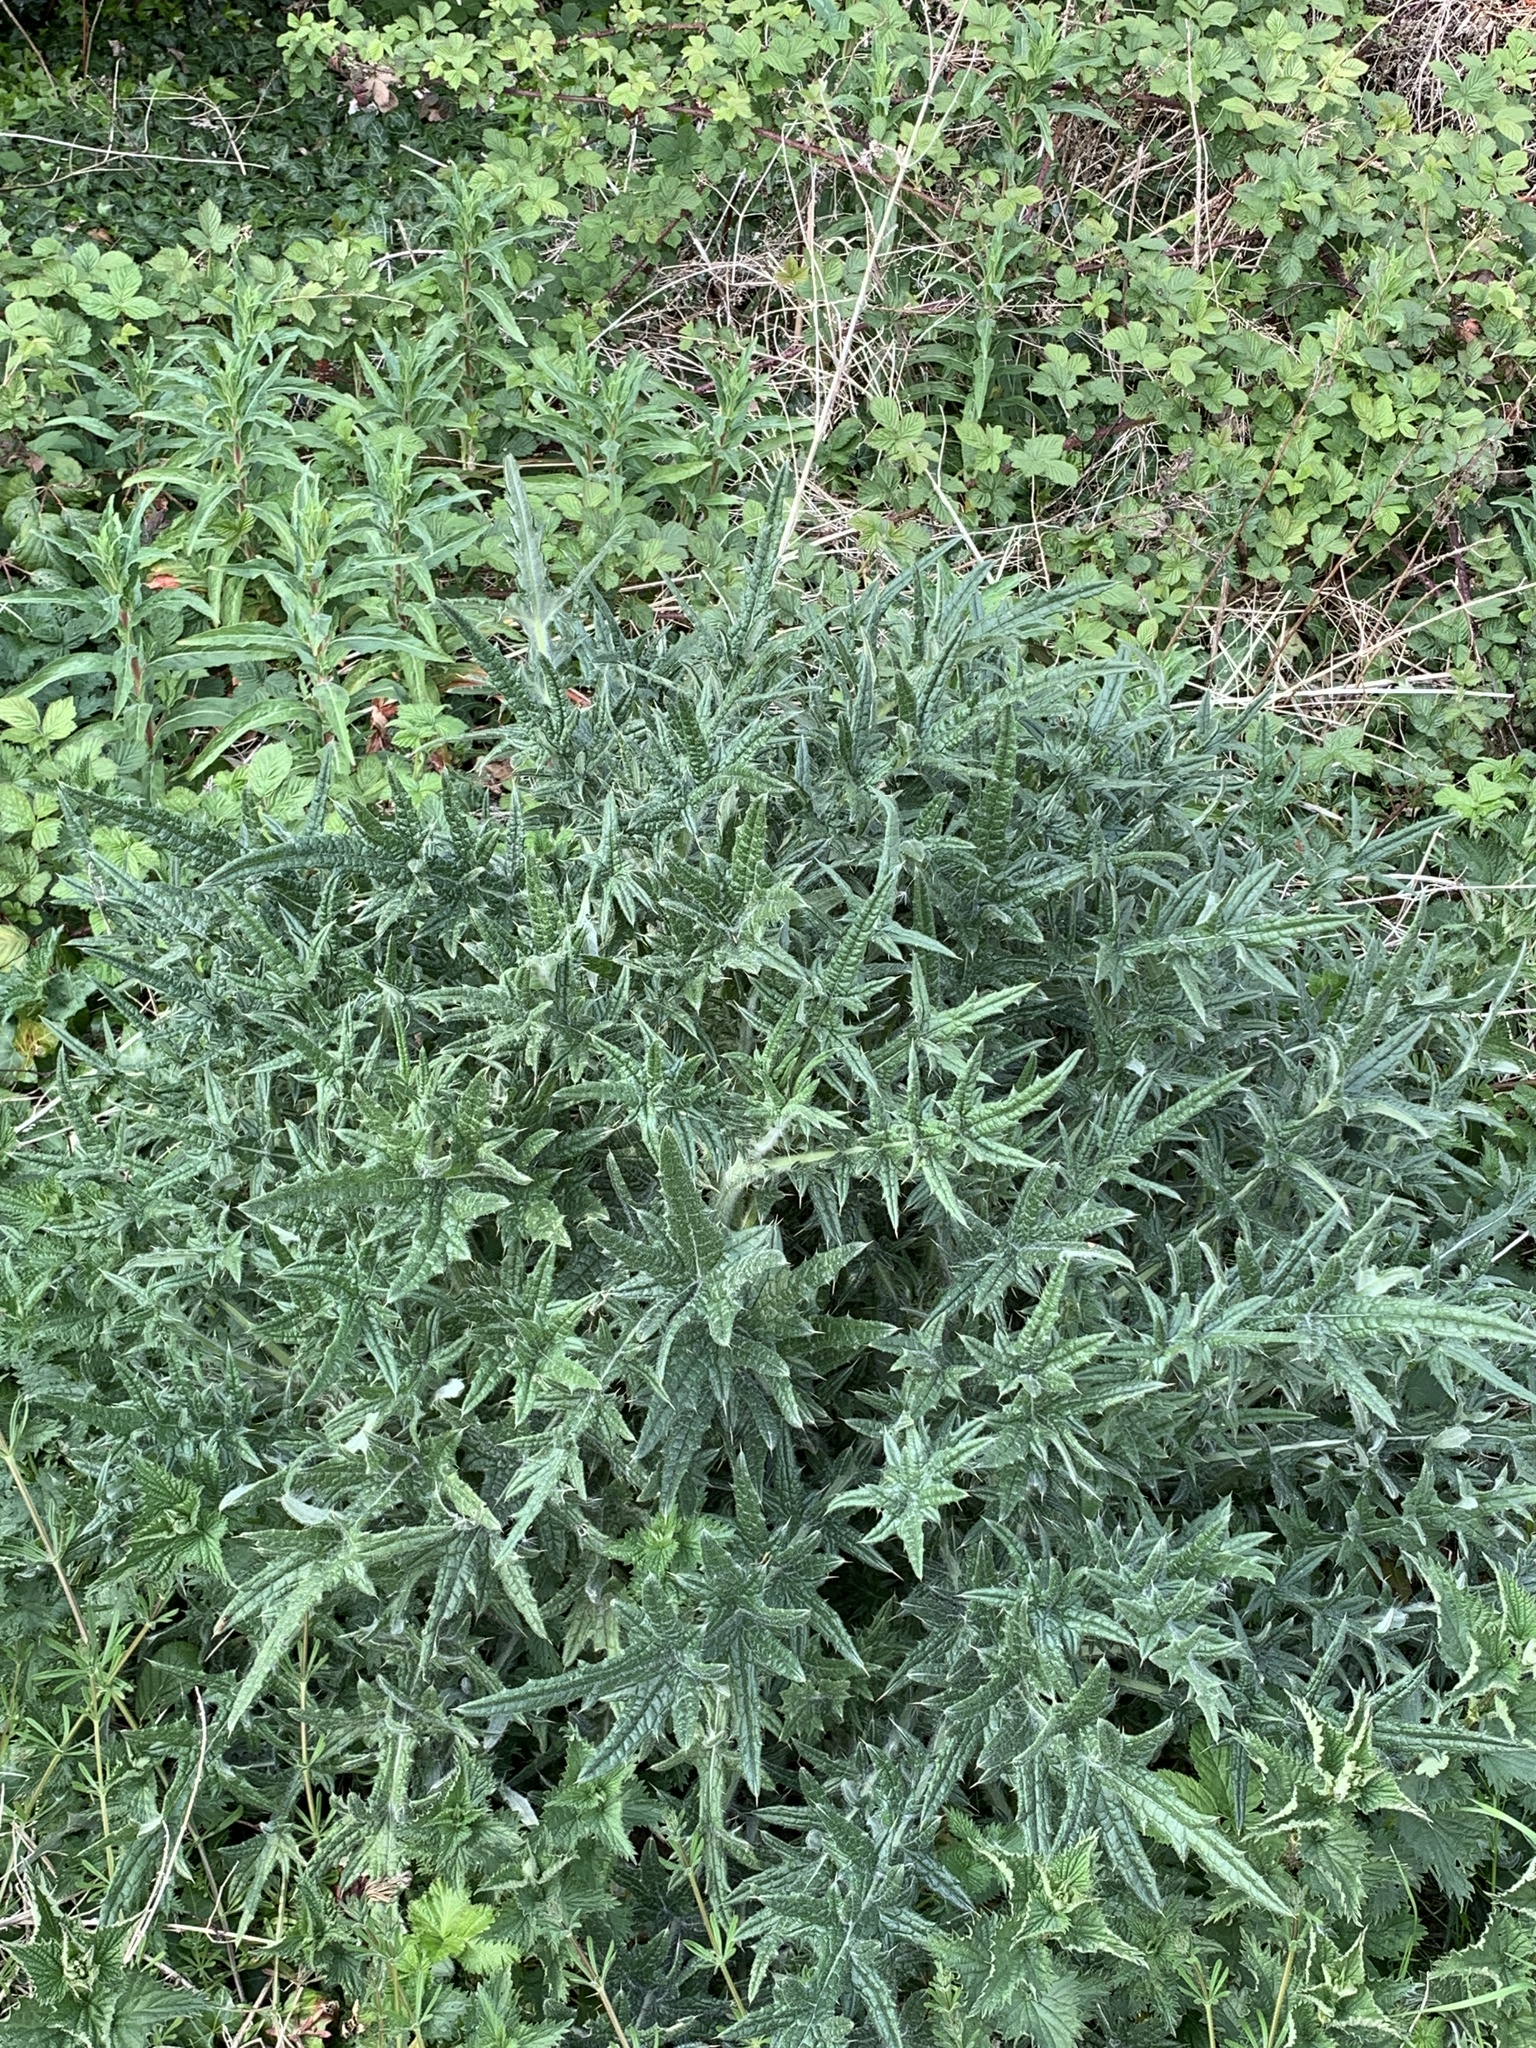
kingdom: Plantae
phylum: Tracheophyta
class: Magnoliopsida
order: Asterales
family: Asteraceae
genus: Cirsium
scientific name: Cirsium vulgare
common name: Bull thistle
